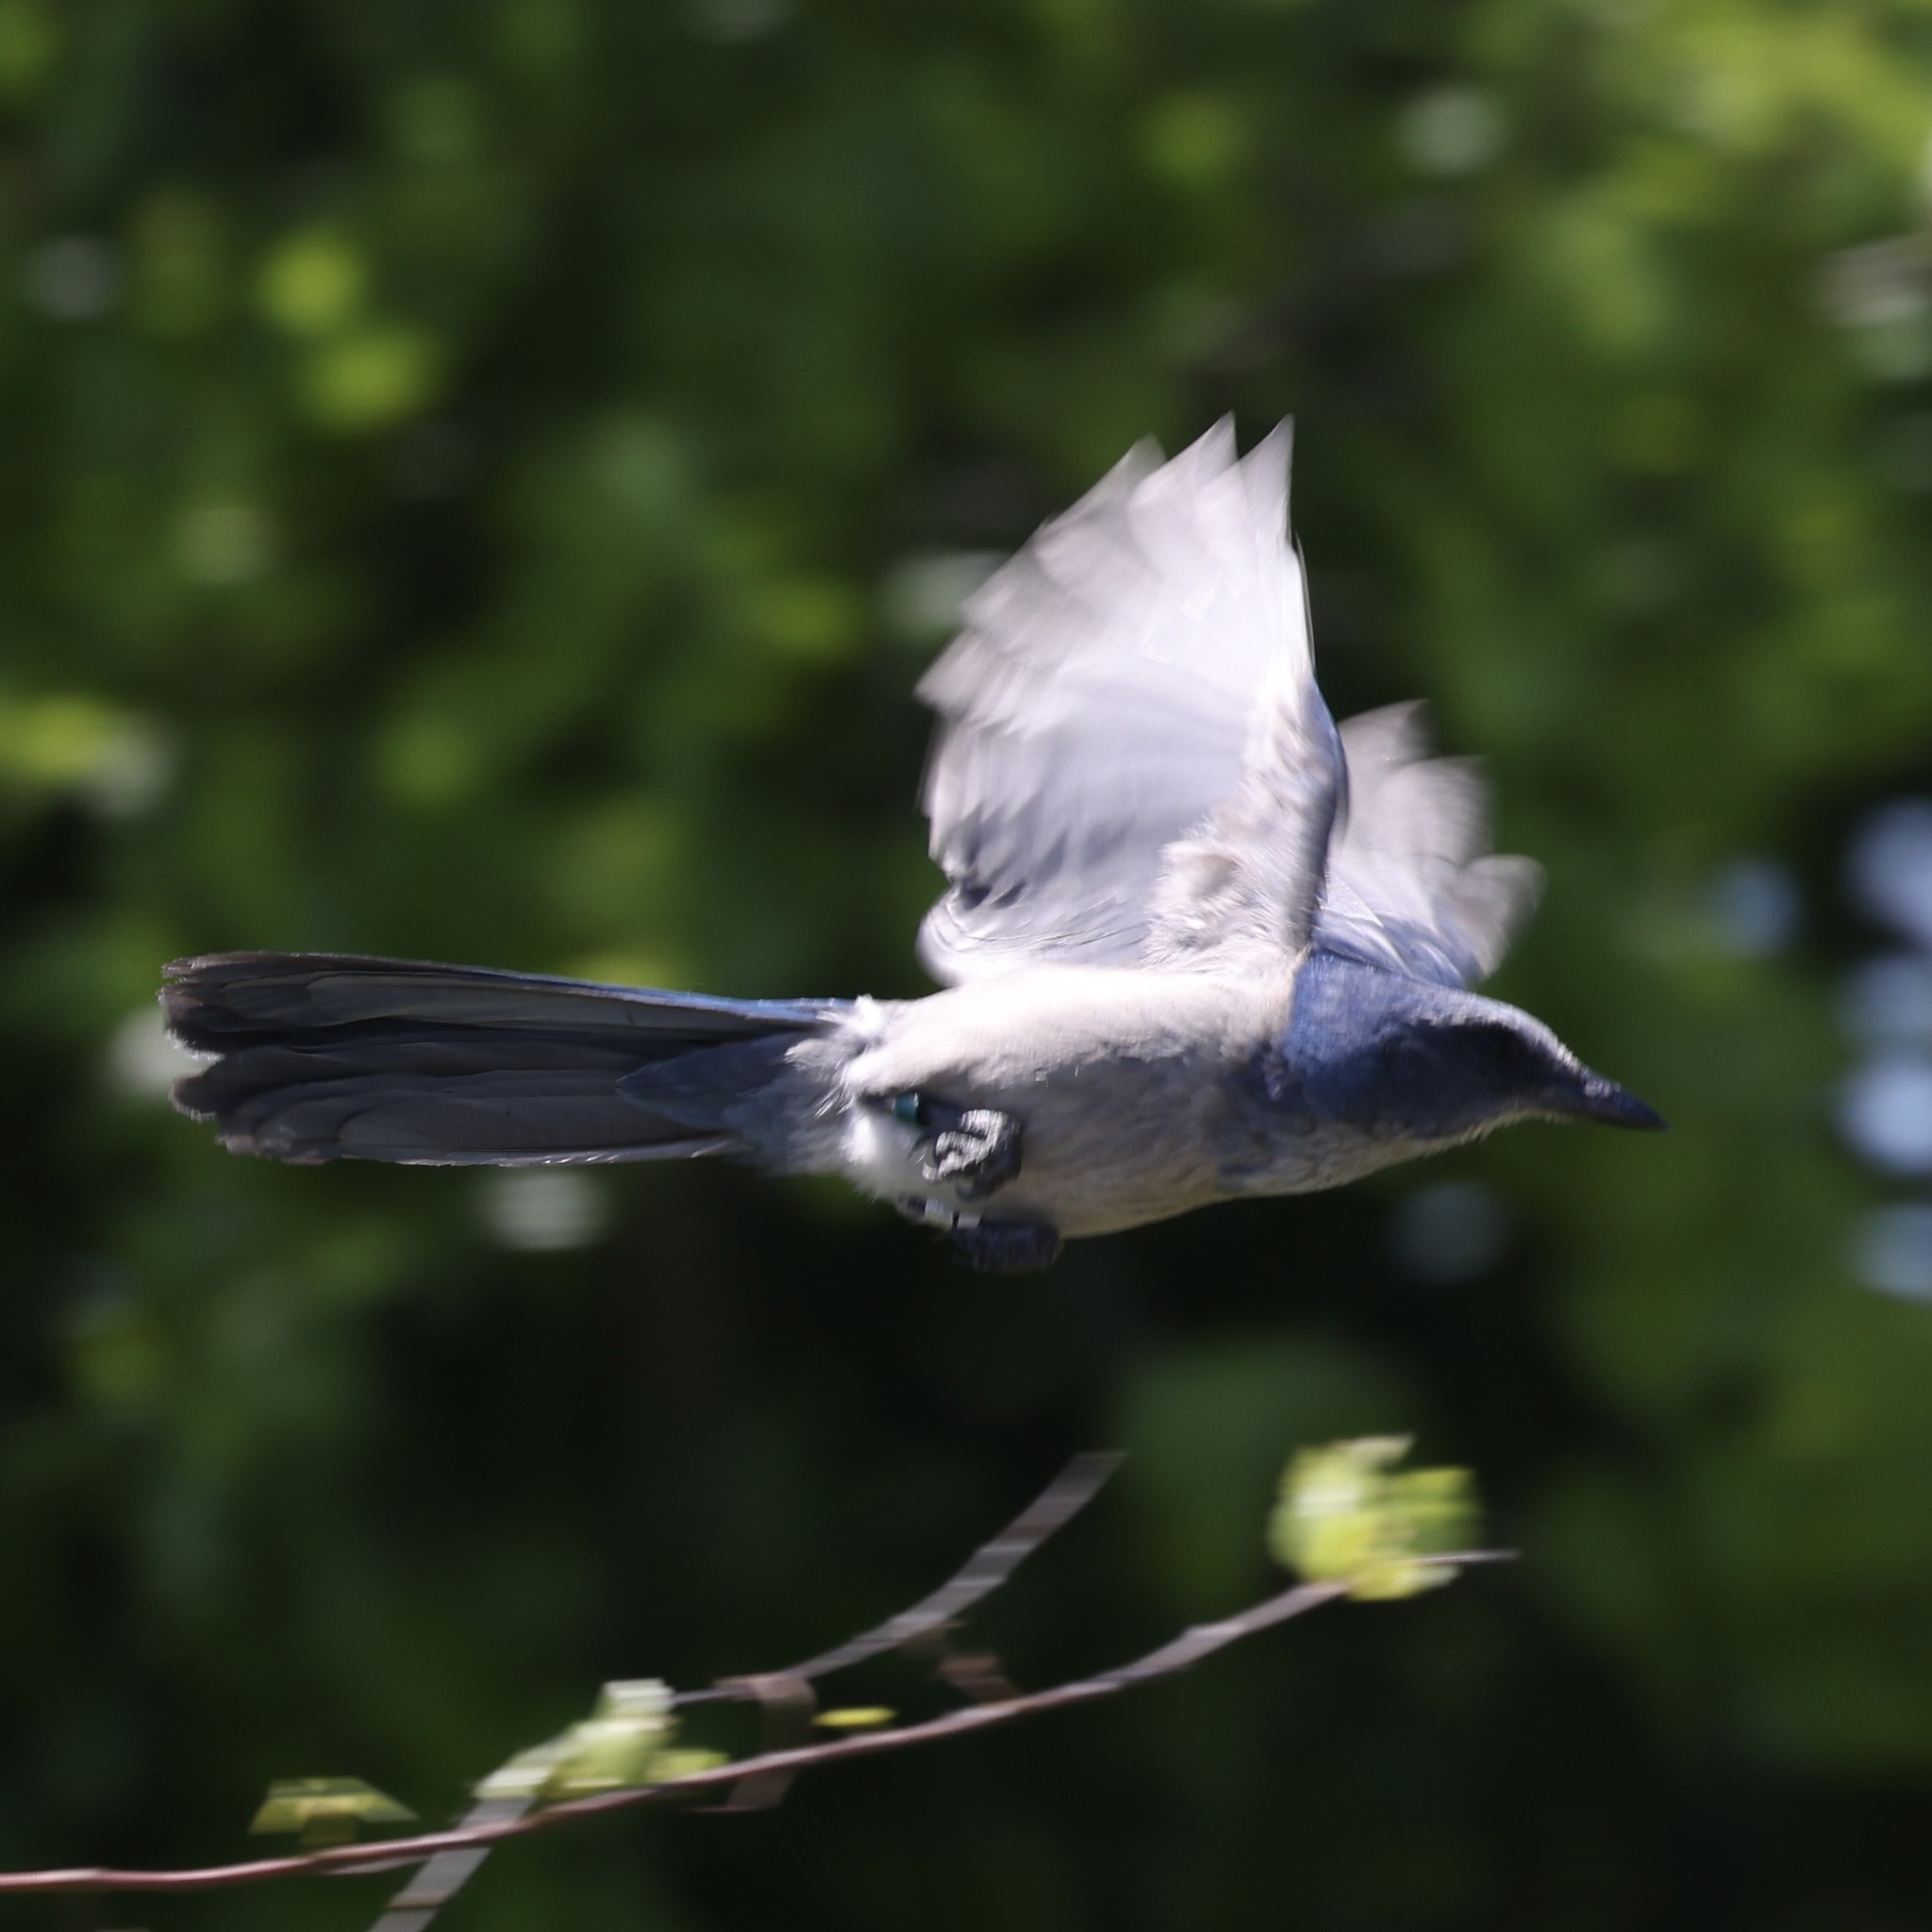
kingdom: Animalia
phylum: Chordata
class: Aves
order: Passeriformes
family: Corvidae
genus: Aphelocoma
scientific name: Aphelocoma coerulescens
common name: Florida scrub jay
